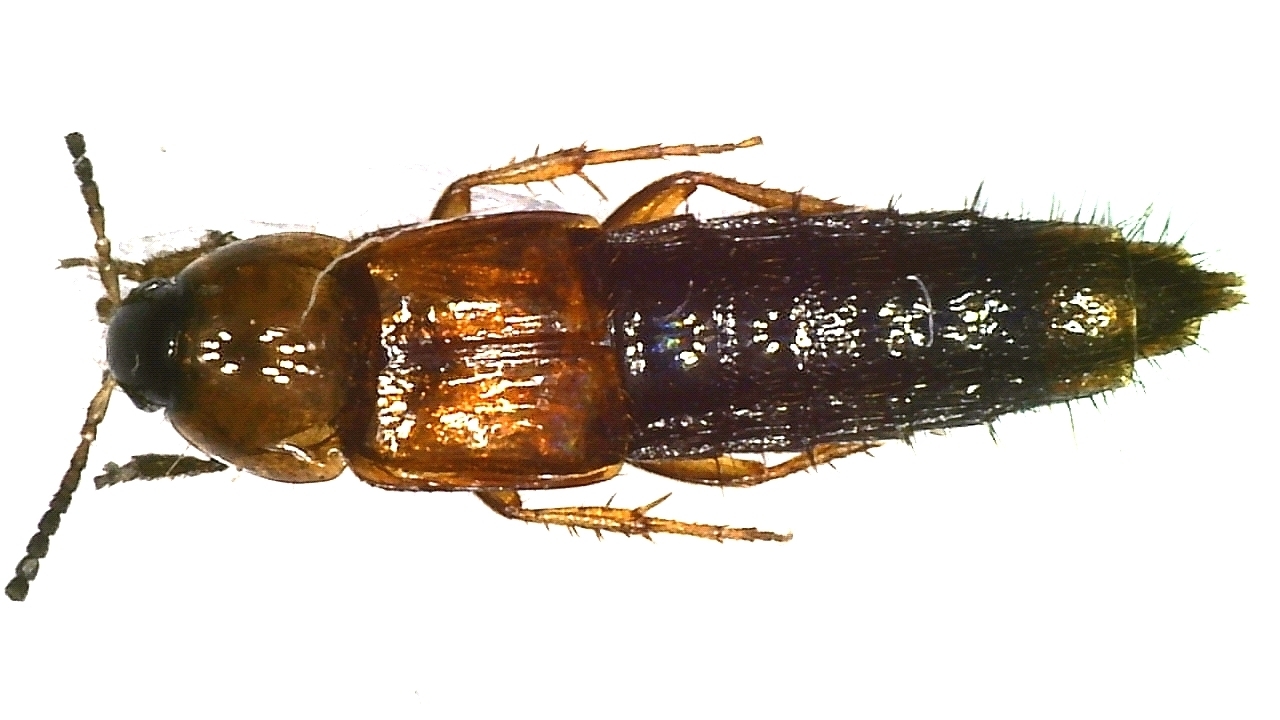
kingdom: Animalia
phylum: Arthropoda
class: Insecta
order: Coleoptera
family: Staphylinidae
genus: Parabolitobius
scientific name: Parabolitobius formosus
